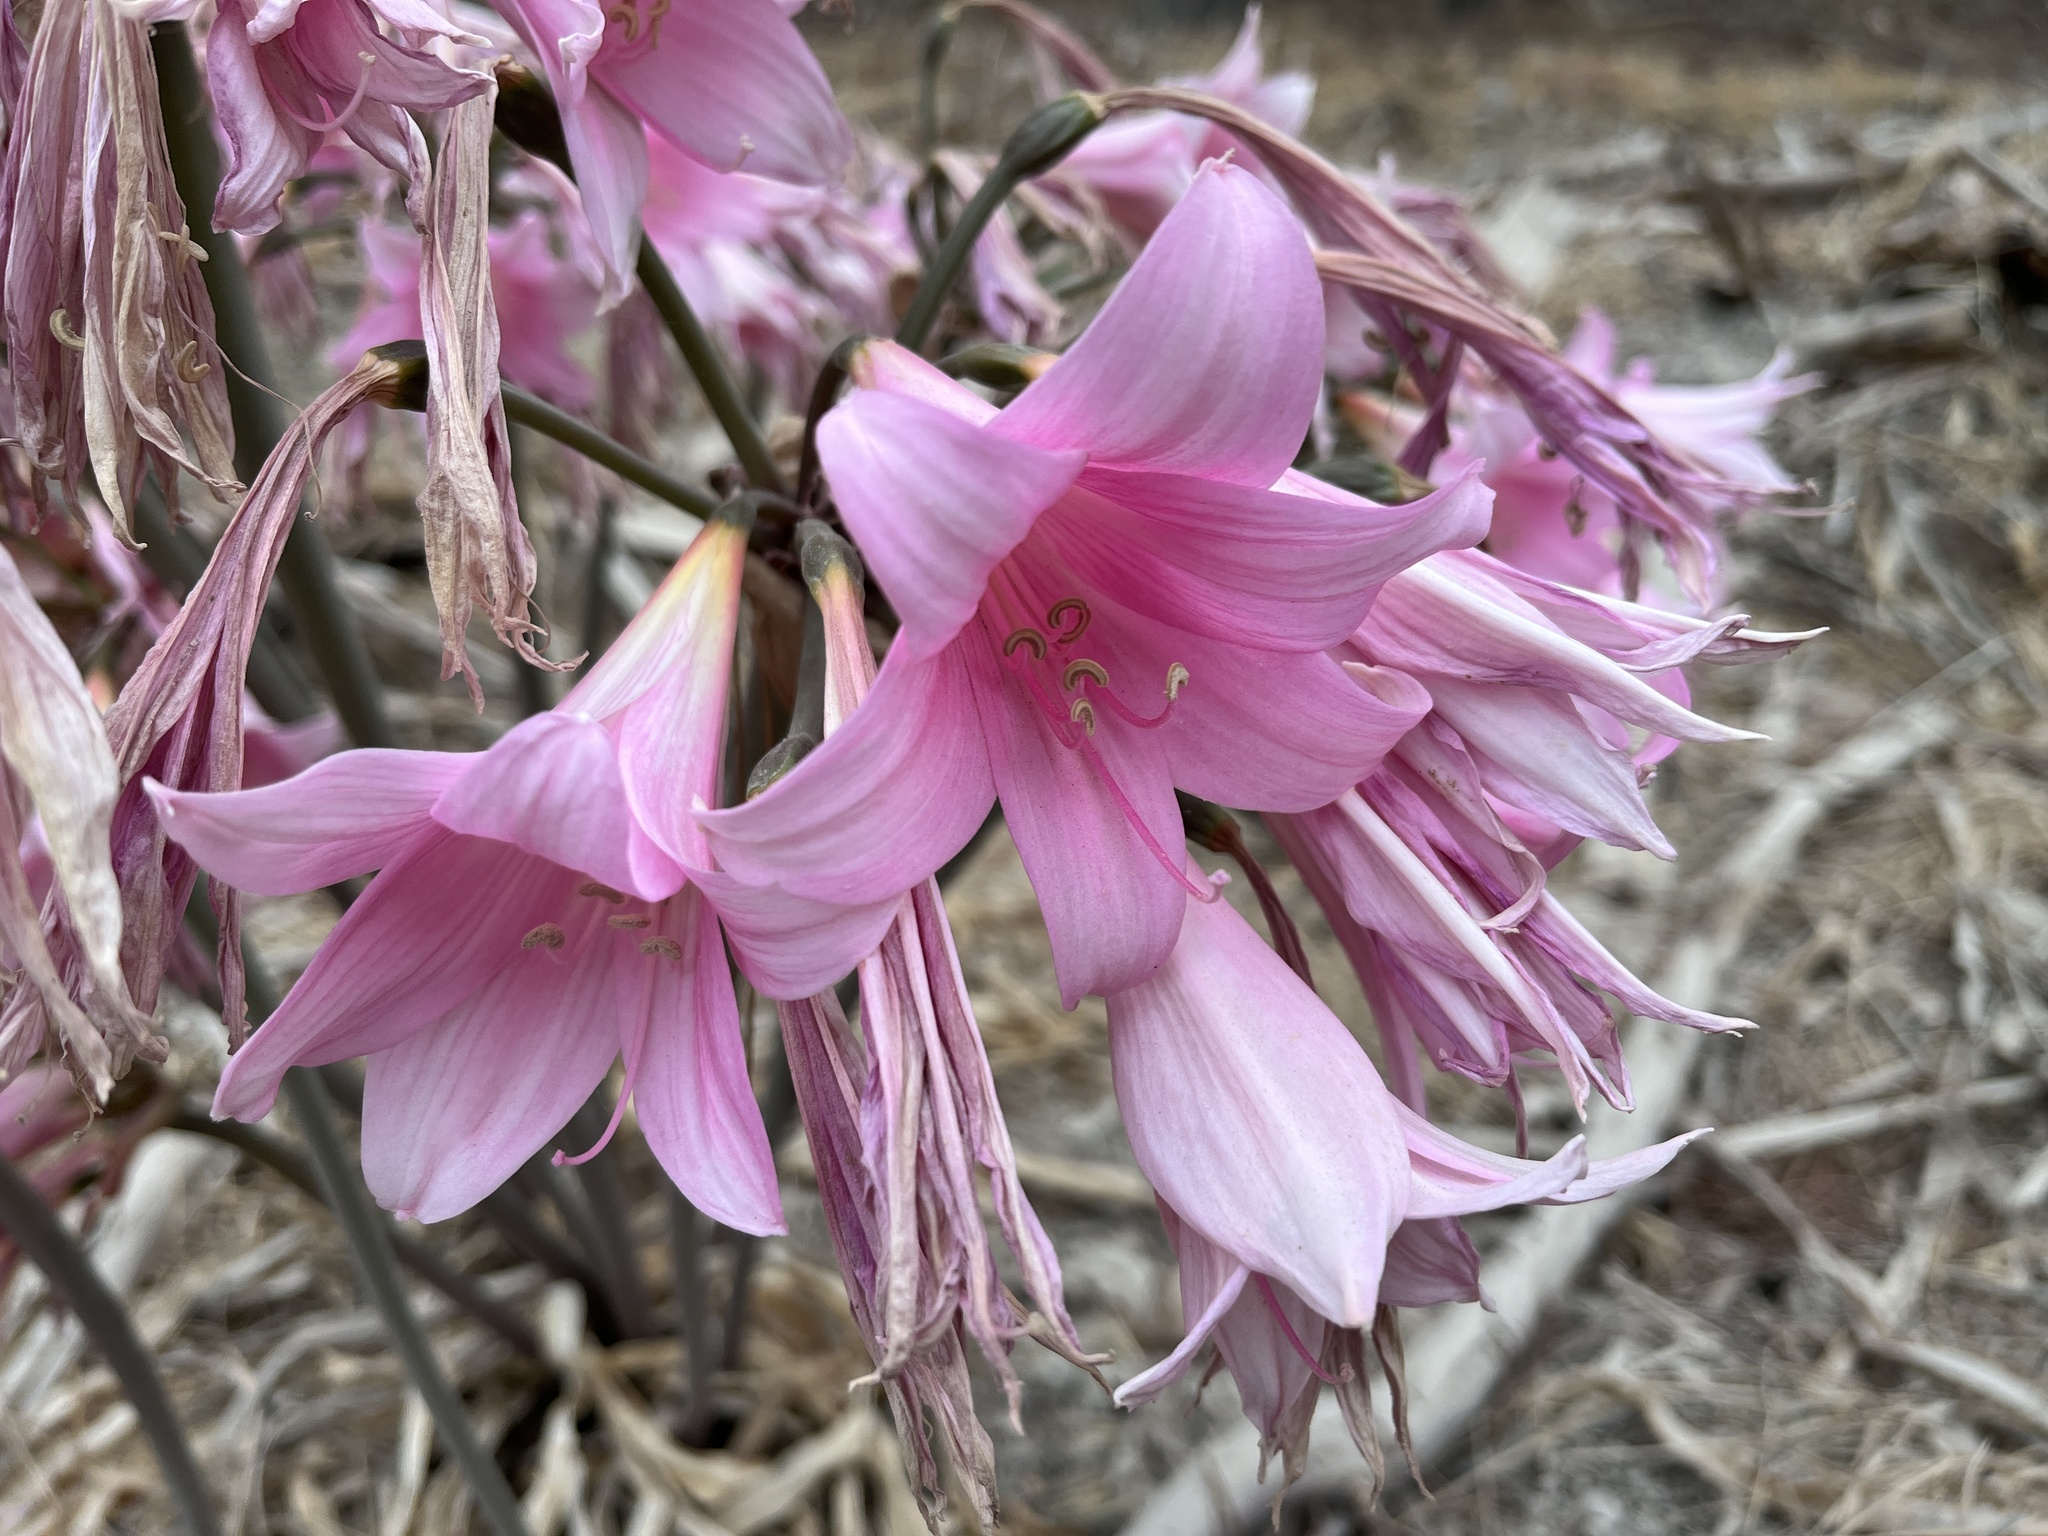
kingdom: Plantae
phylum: Tracheophyta
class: Liliopsida
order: Asparagales
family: Amaryllidaceae
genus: Amaryllis
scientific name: Amaryllis belladonna
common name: Jersey lily
